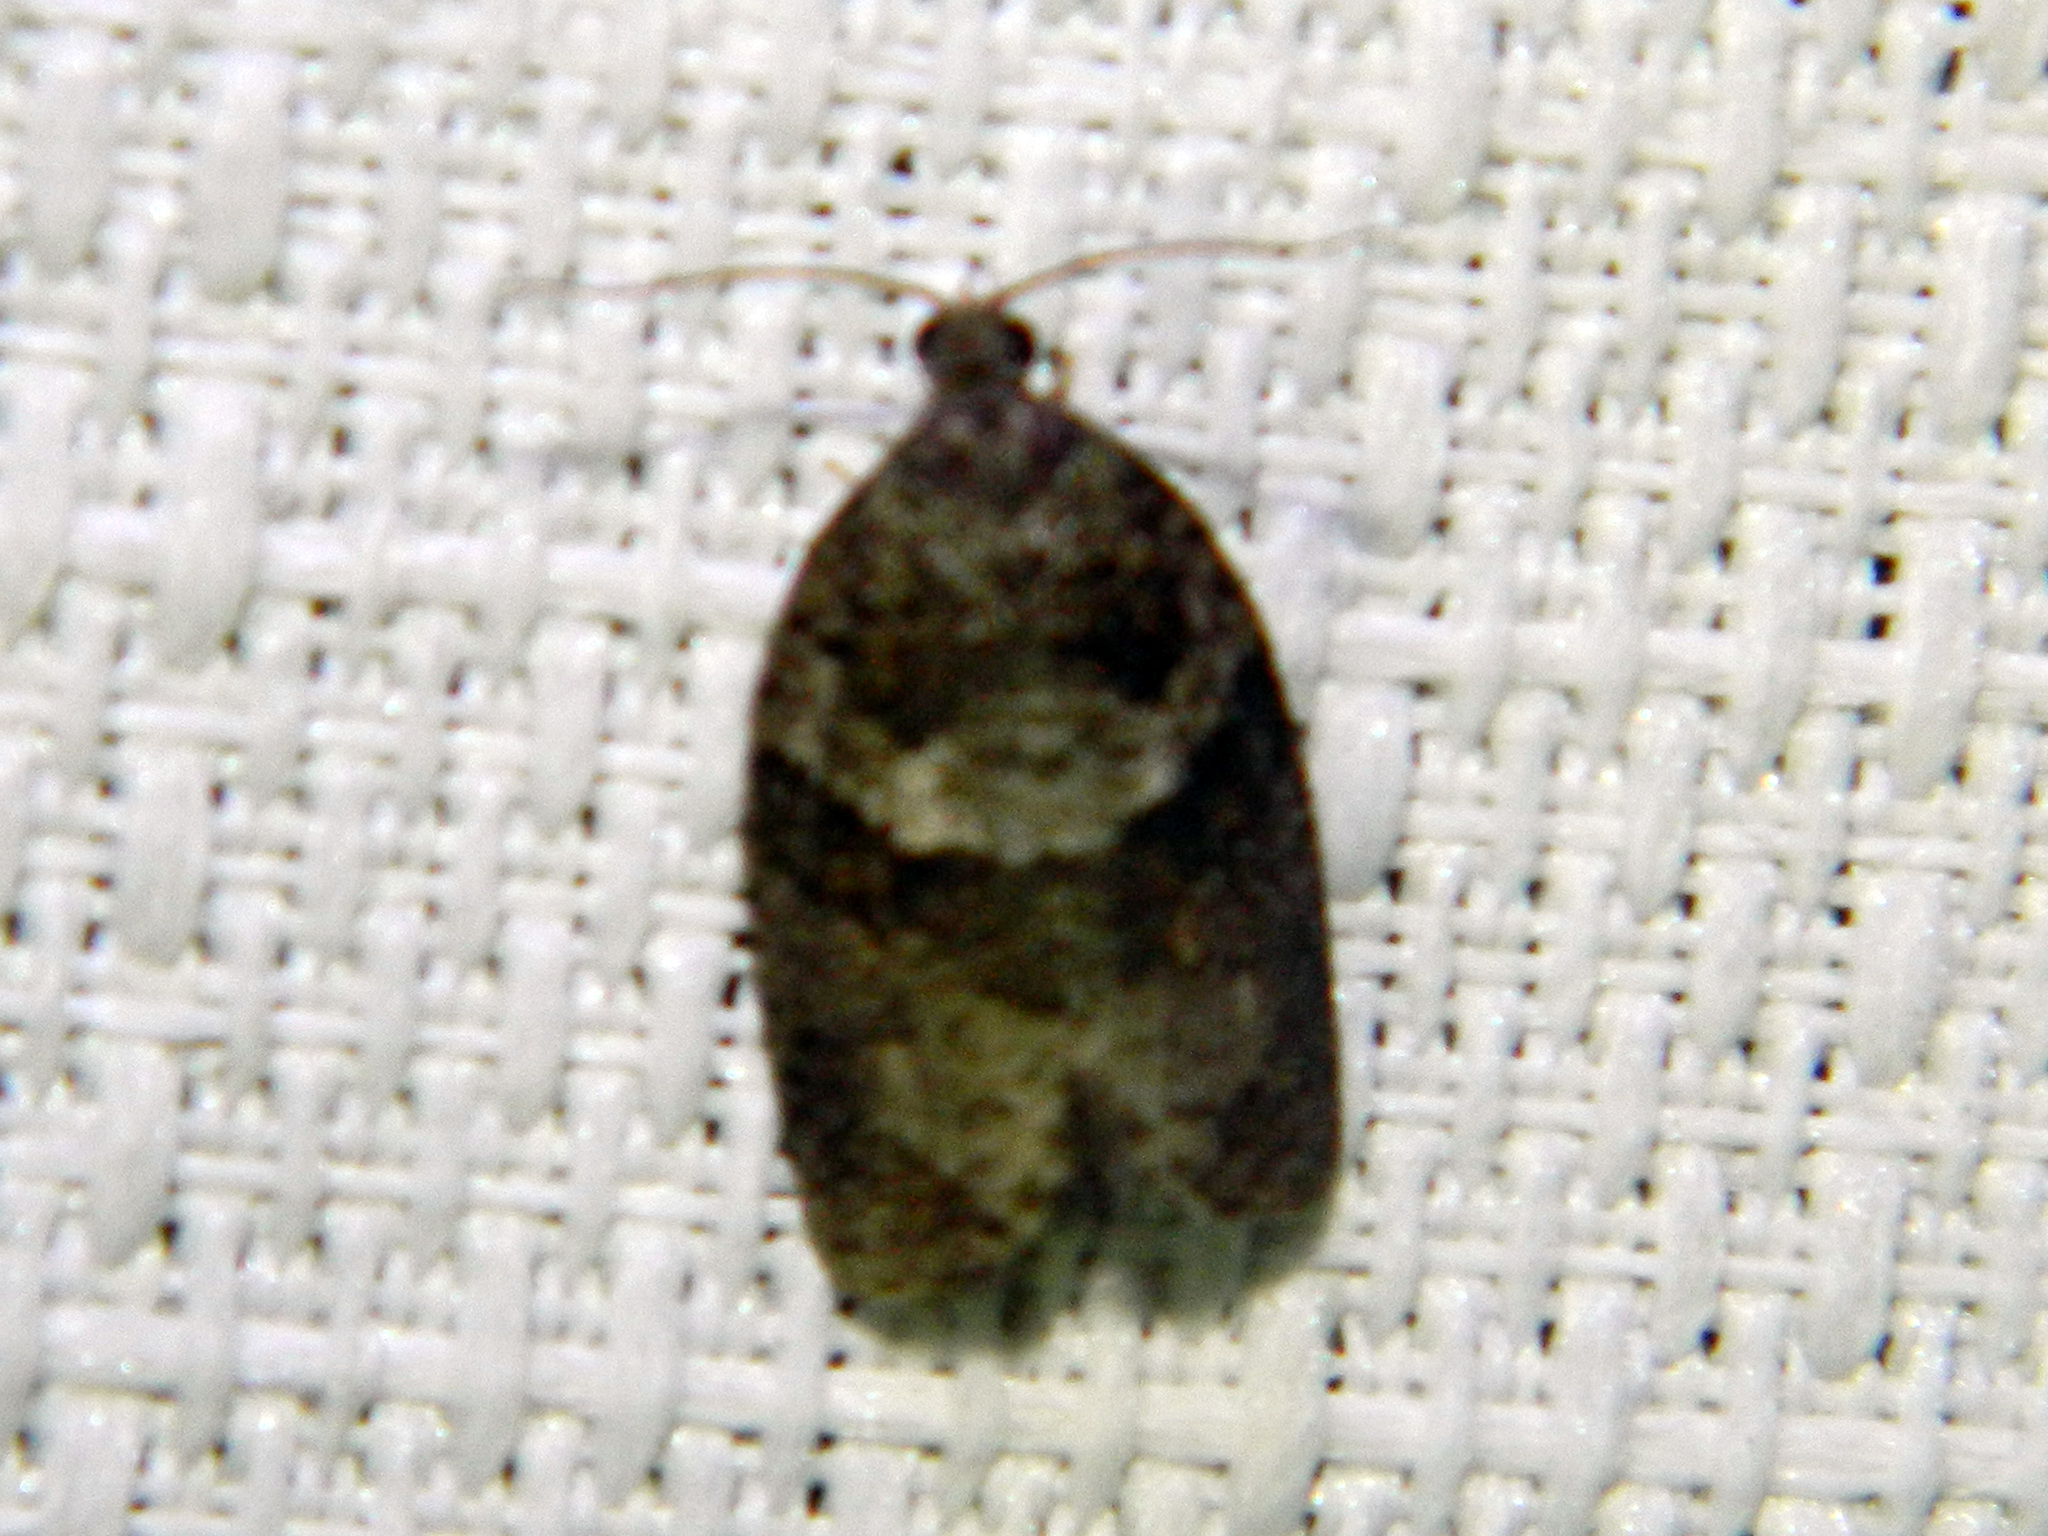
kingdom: Animalia
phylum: Arthropoda
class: Insecta
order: Lepidoptera
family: Tortricidae
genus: Syndemis
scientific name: Syndemis afflictana
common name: Gray leafroller moth
